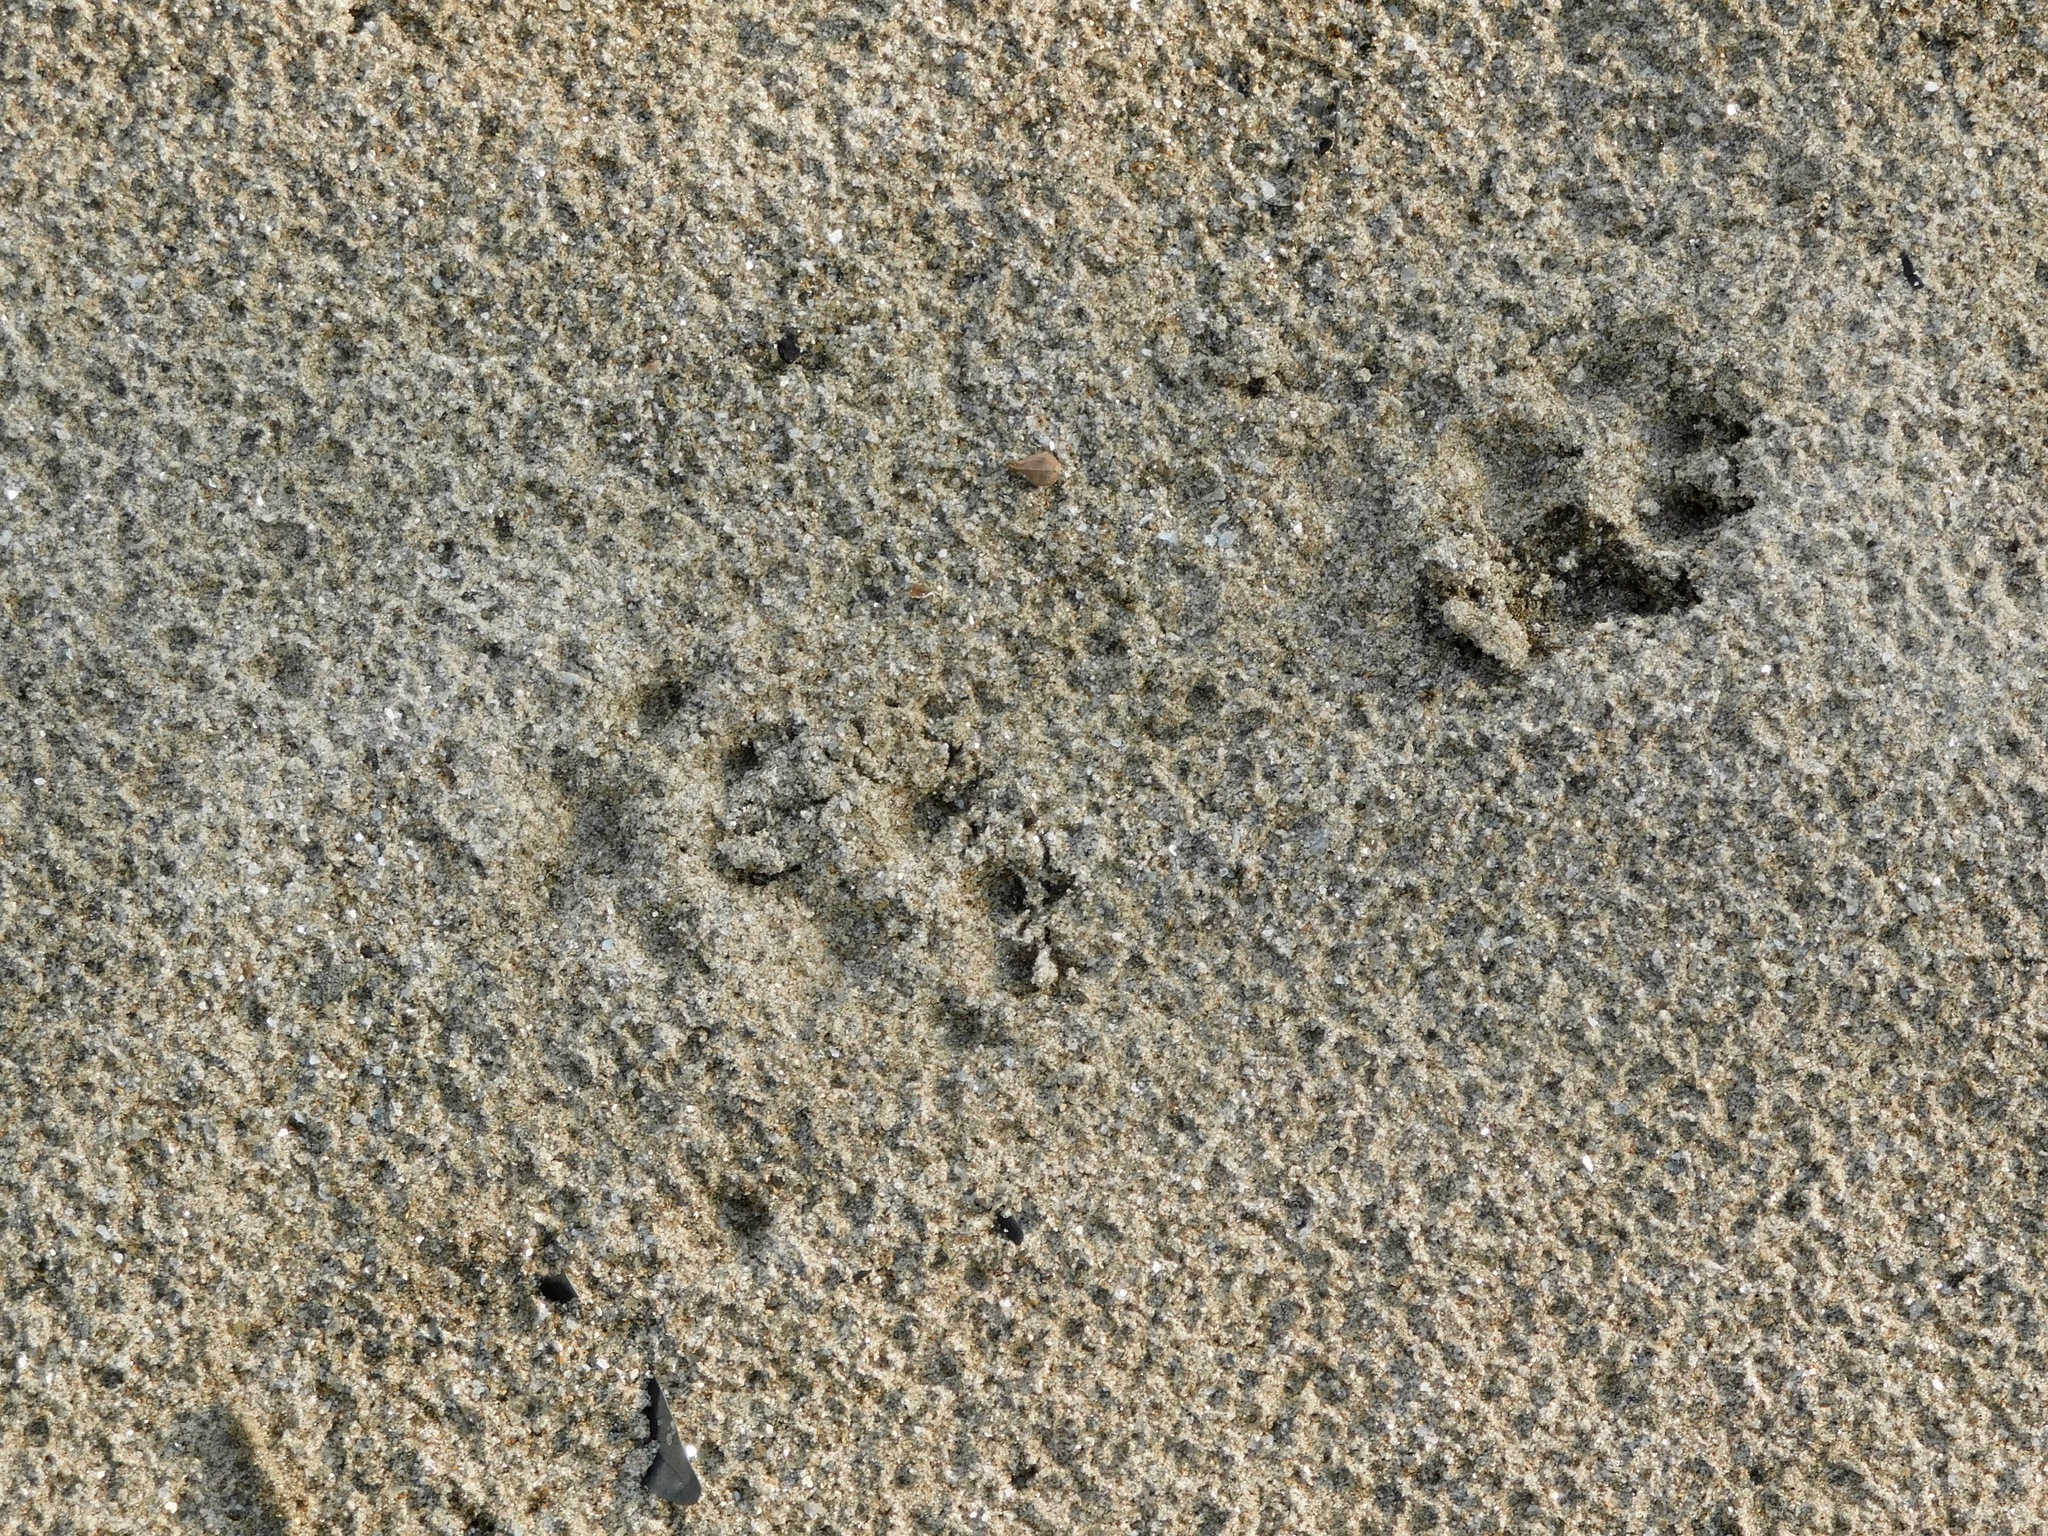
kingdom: Animalia
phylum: Chordata
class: Mammalia
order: Carnivora
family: Mustelidae
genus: Mustela
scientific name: Mustela
